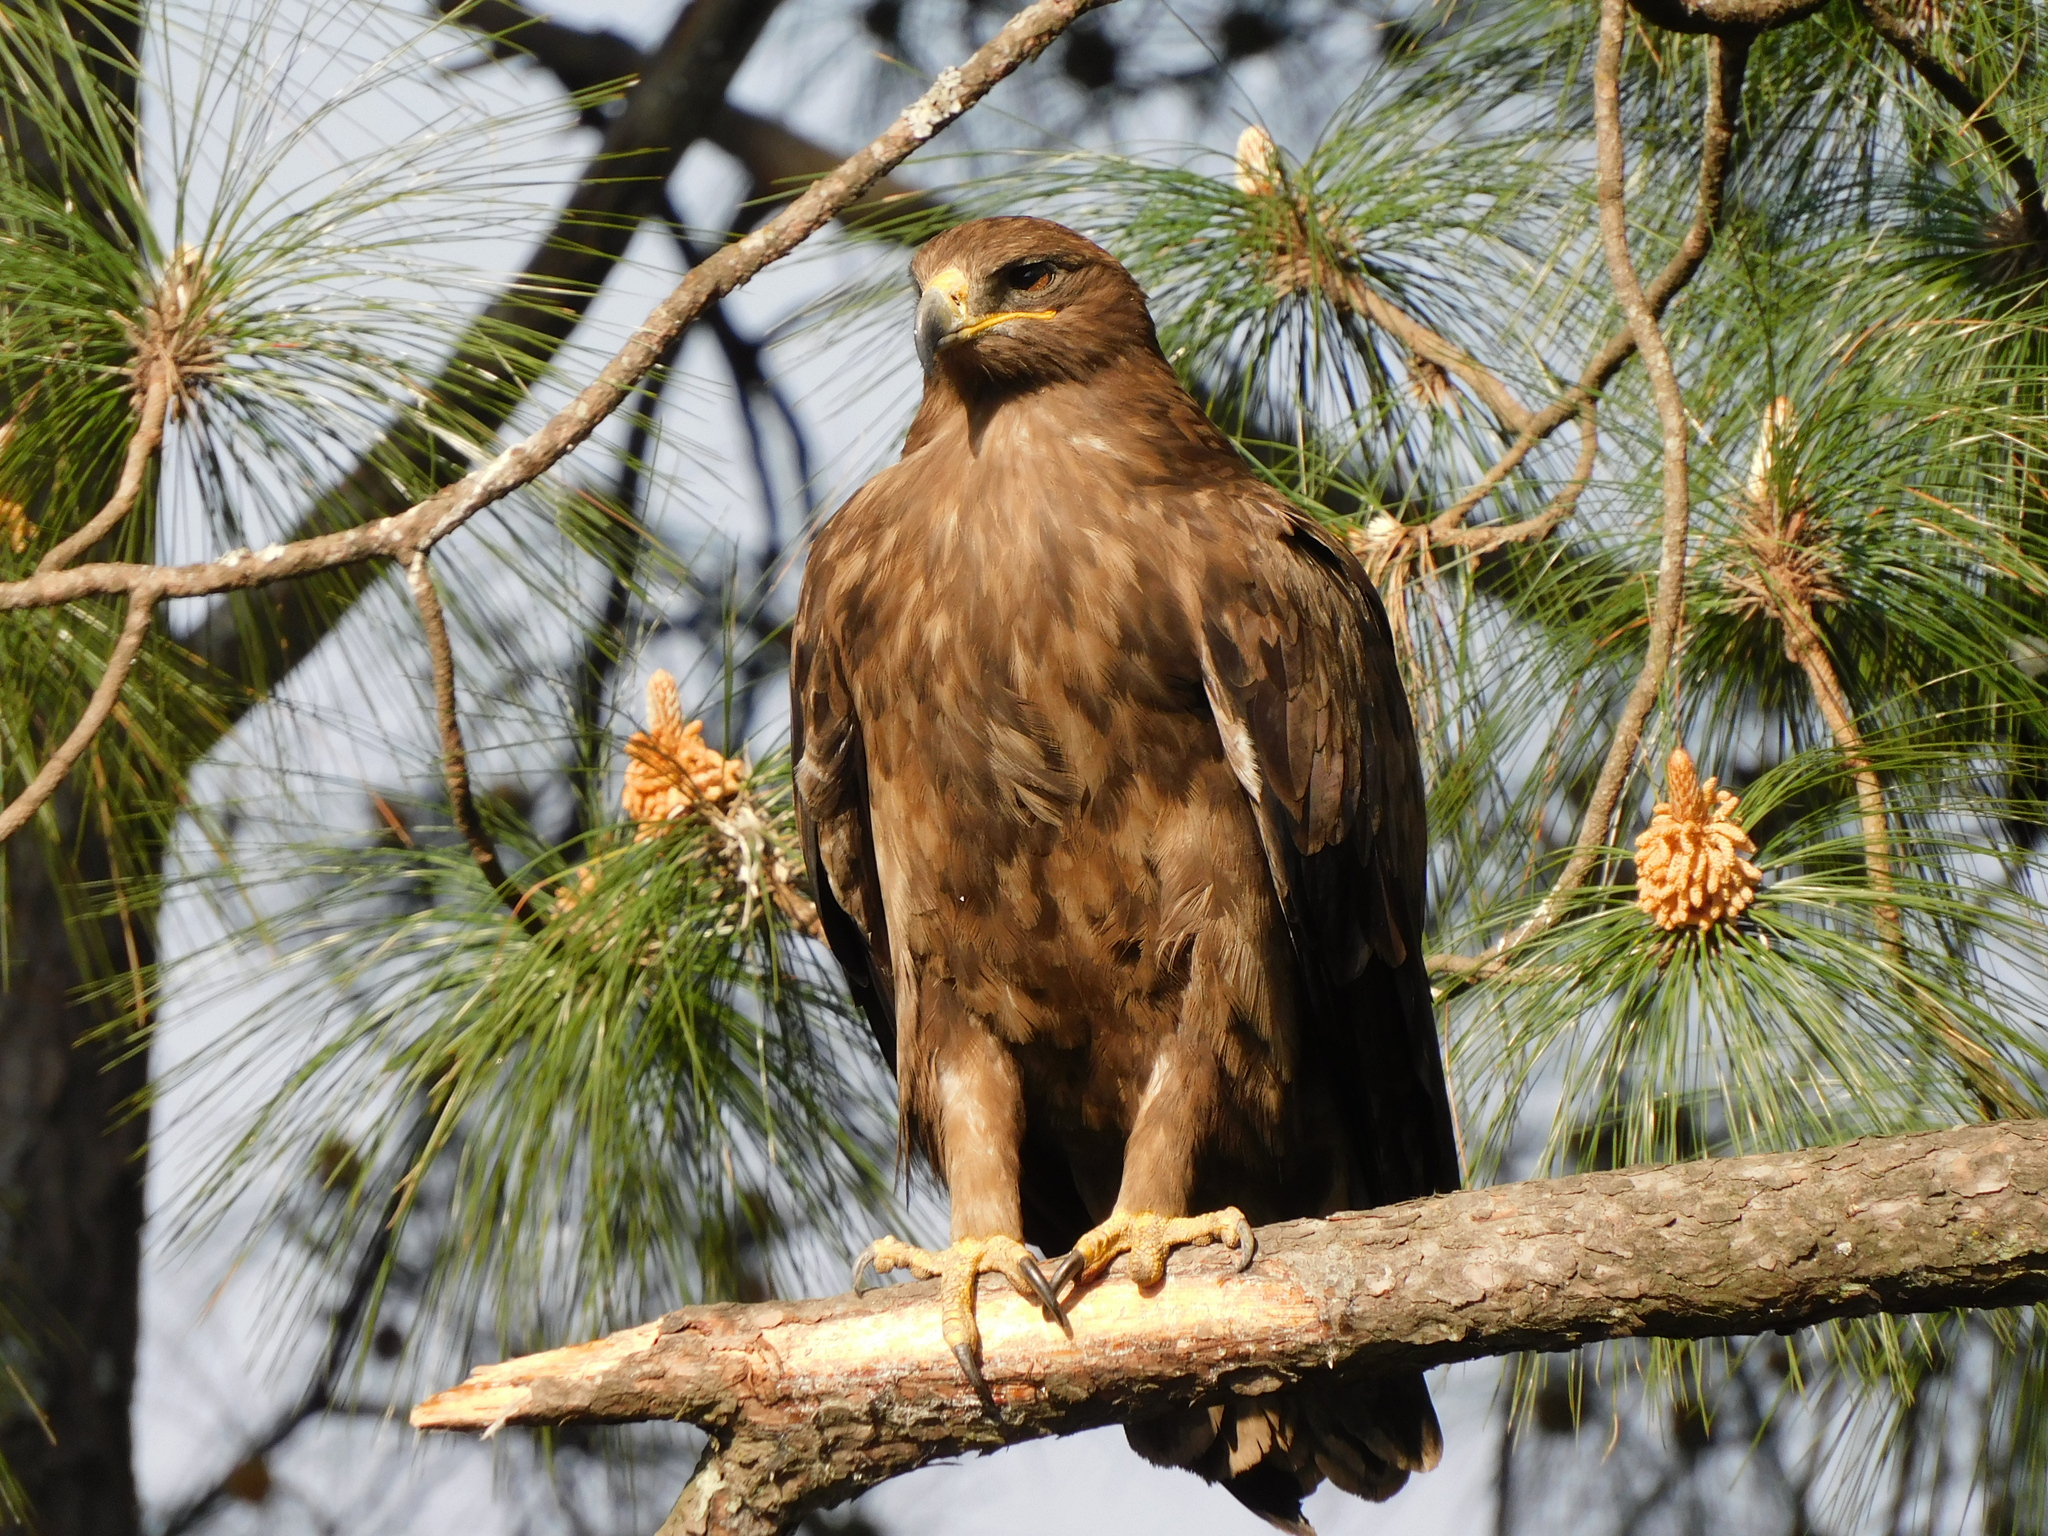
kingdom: Animalia
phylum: Chordata
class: Aves
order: Accipitriformes
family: Accipitridae
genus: Aquila
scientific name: Aquila nipalensis
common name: Steppe eagle
